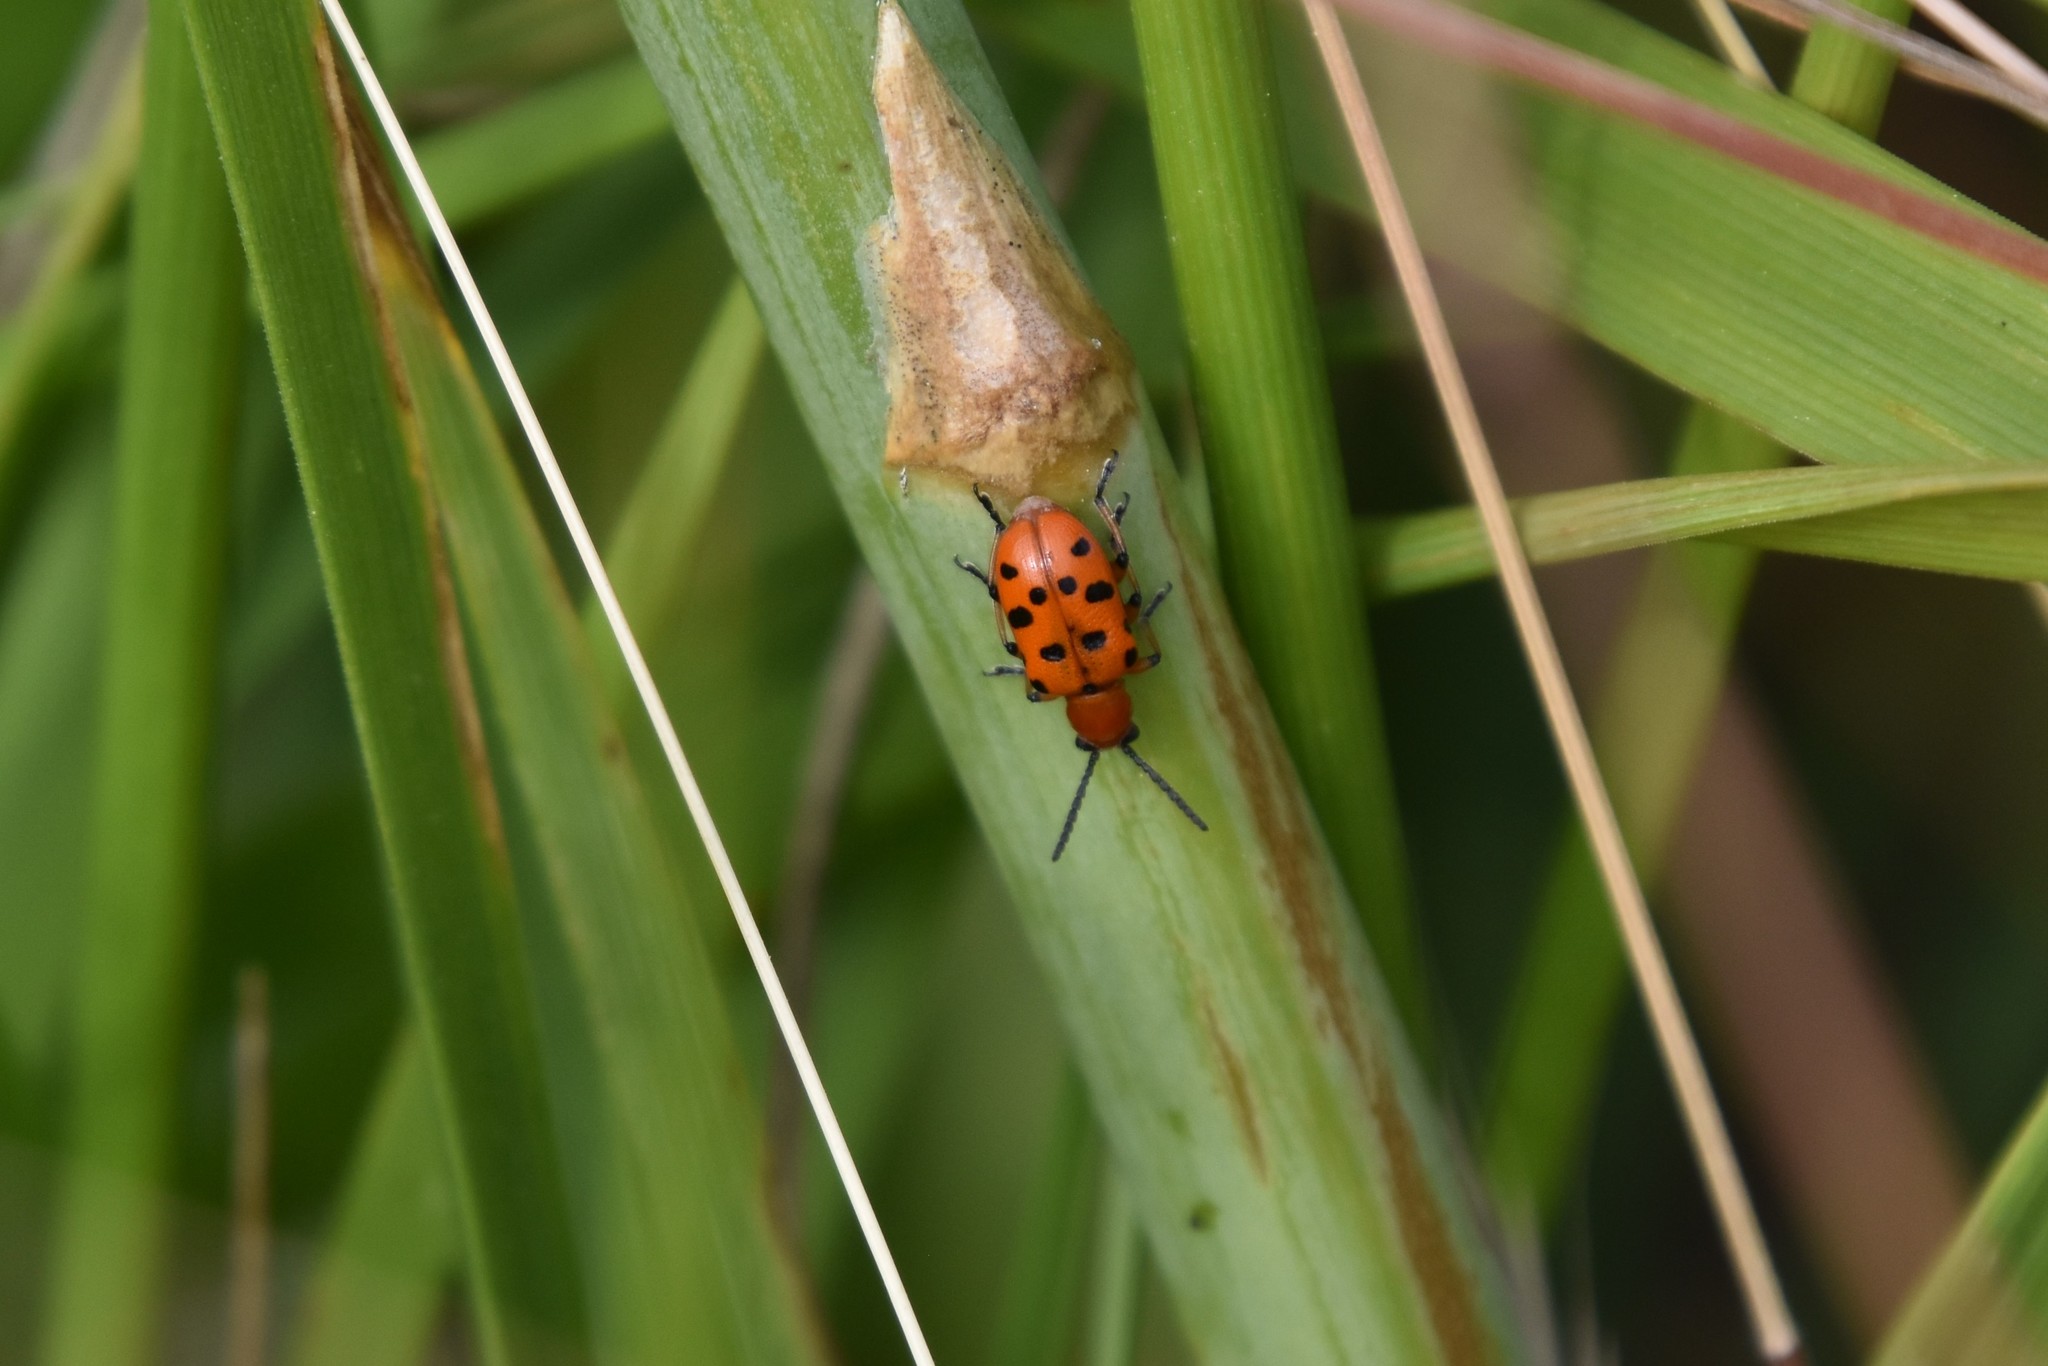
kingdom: Animalia
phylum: Arthropoda
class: Insecta
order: Coleoptera
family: Chrysomelidae
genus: Crioceris
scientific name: Crioceris duodecimpunctata
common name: Twelve-spotted asparagus beetle
